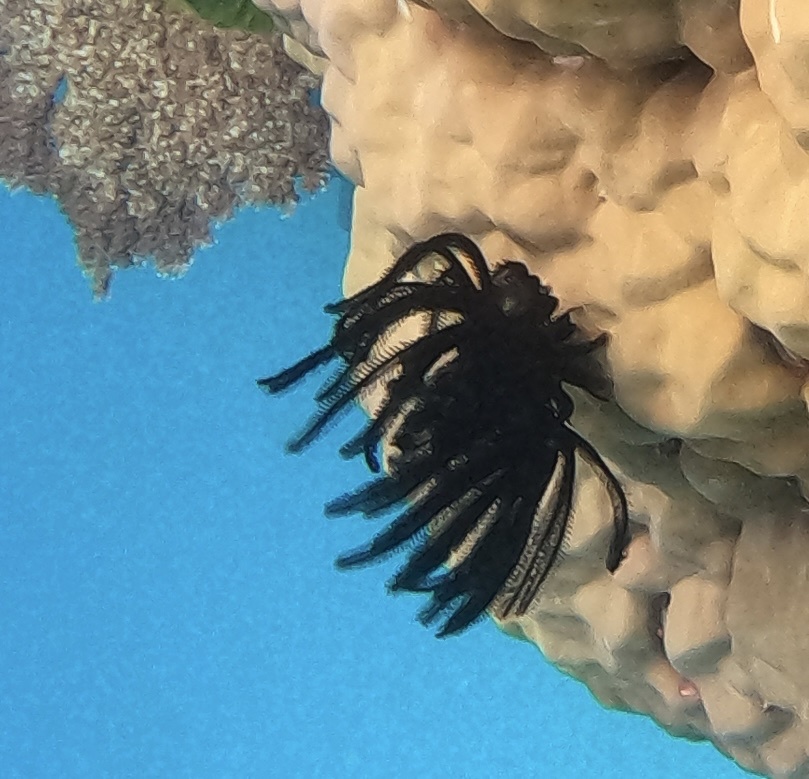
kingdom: Animalia
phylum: Echinodermata
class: Crinoidea
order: Comatulida
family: Comatulidae
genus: Anneissia
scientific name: Anneissia bennetti
